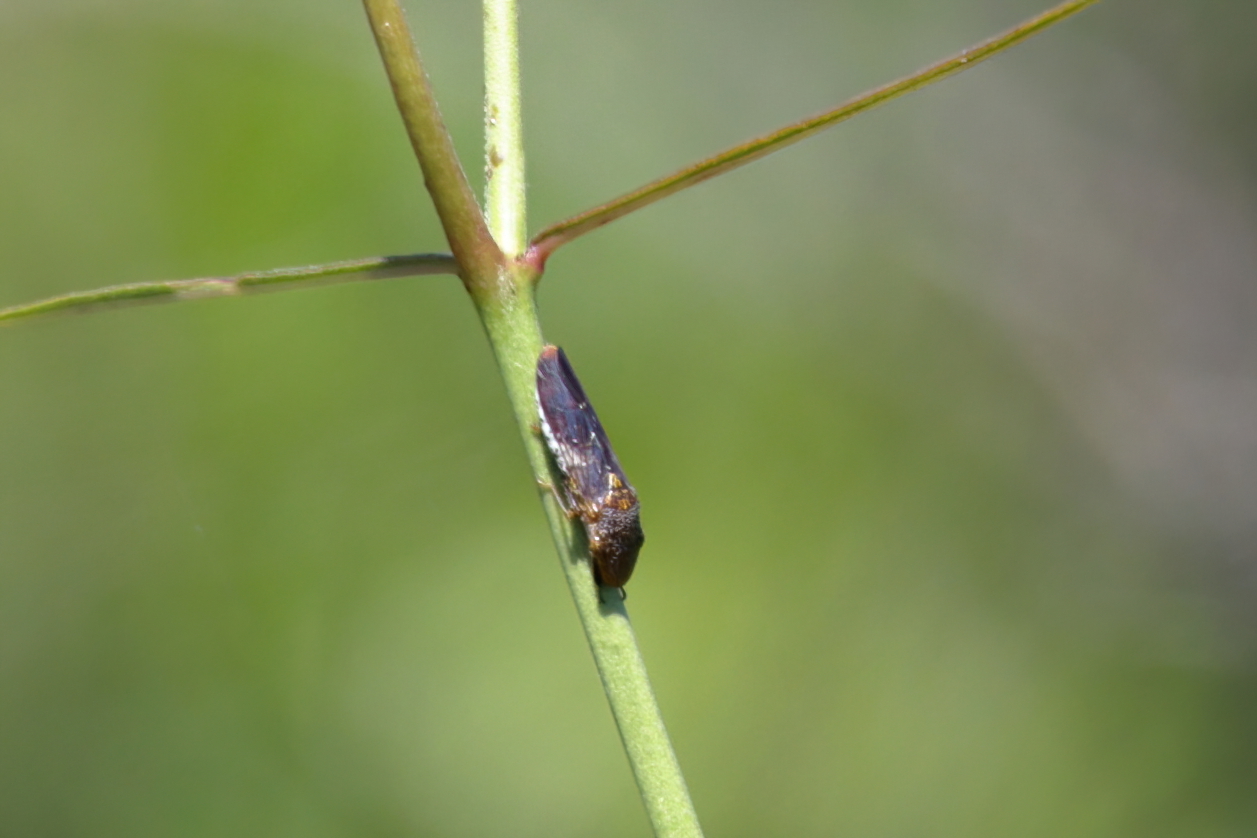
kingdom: Animalia
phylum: Arthropoda
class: Insecta
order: Hemiptera
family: Cicadellidae
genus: Homalodisca
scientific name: Homalodisca vitripennis
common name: Glassy-winged sharpshooter
